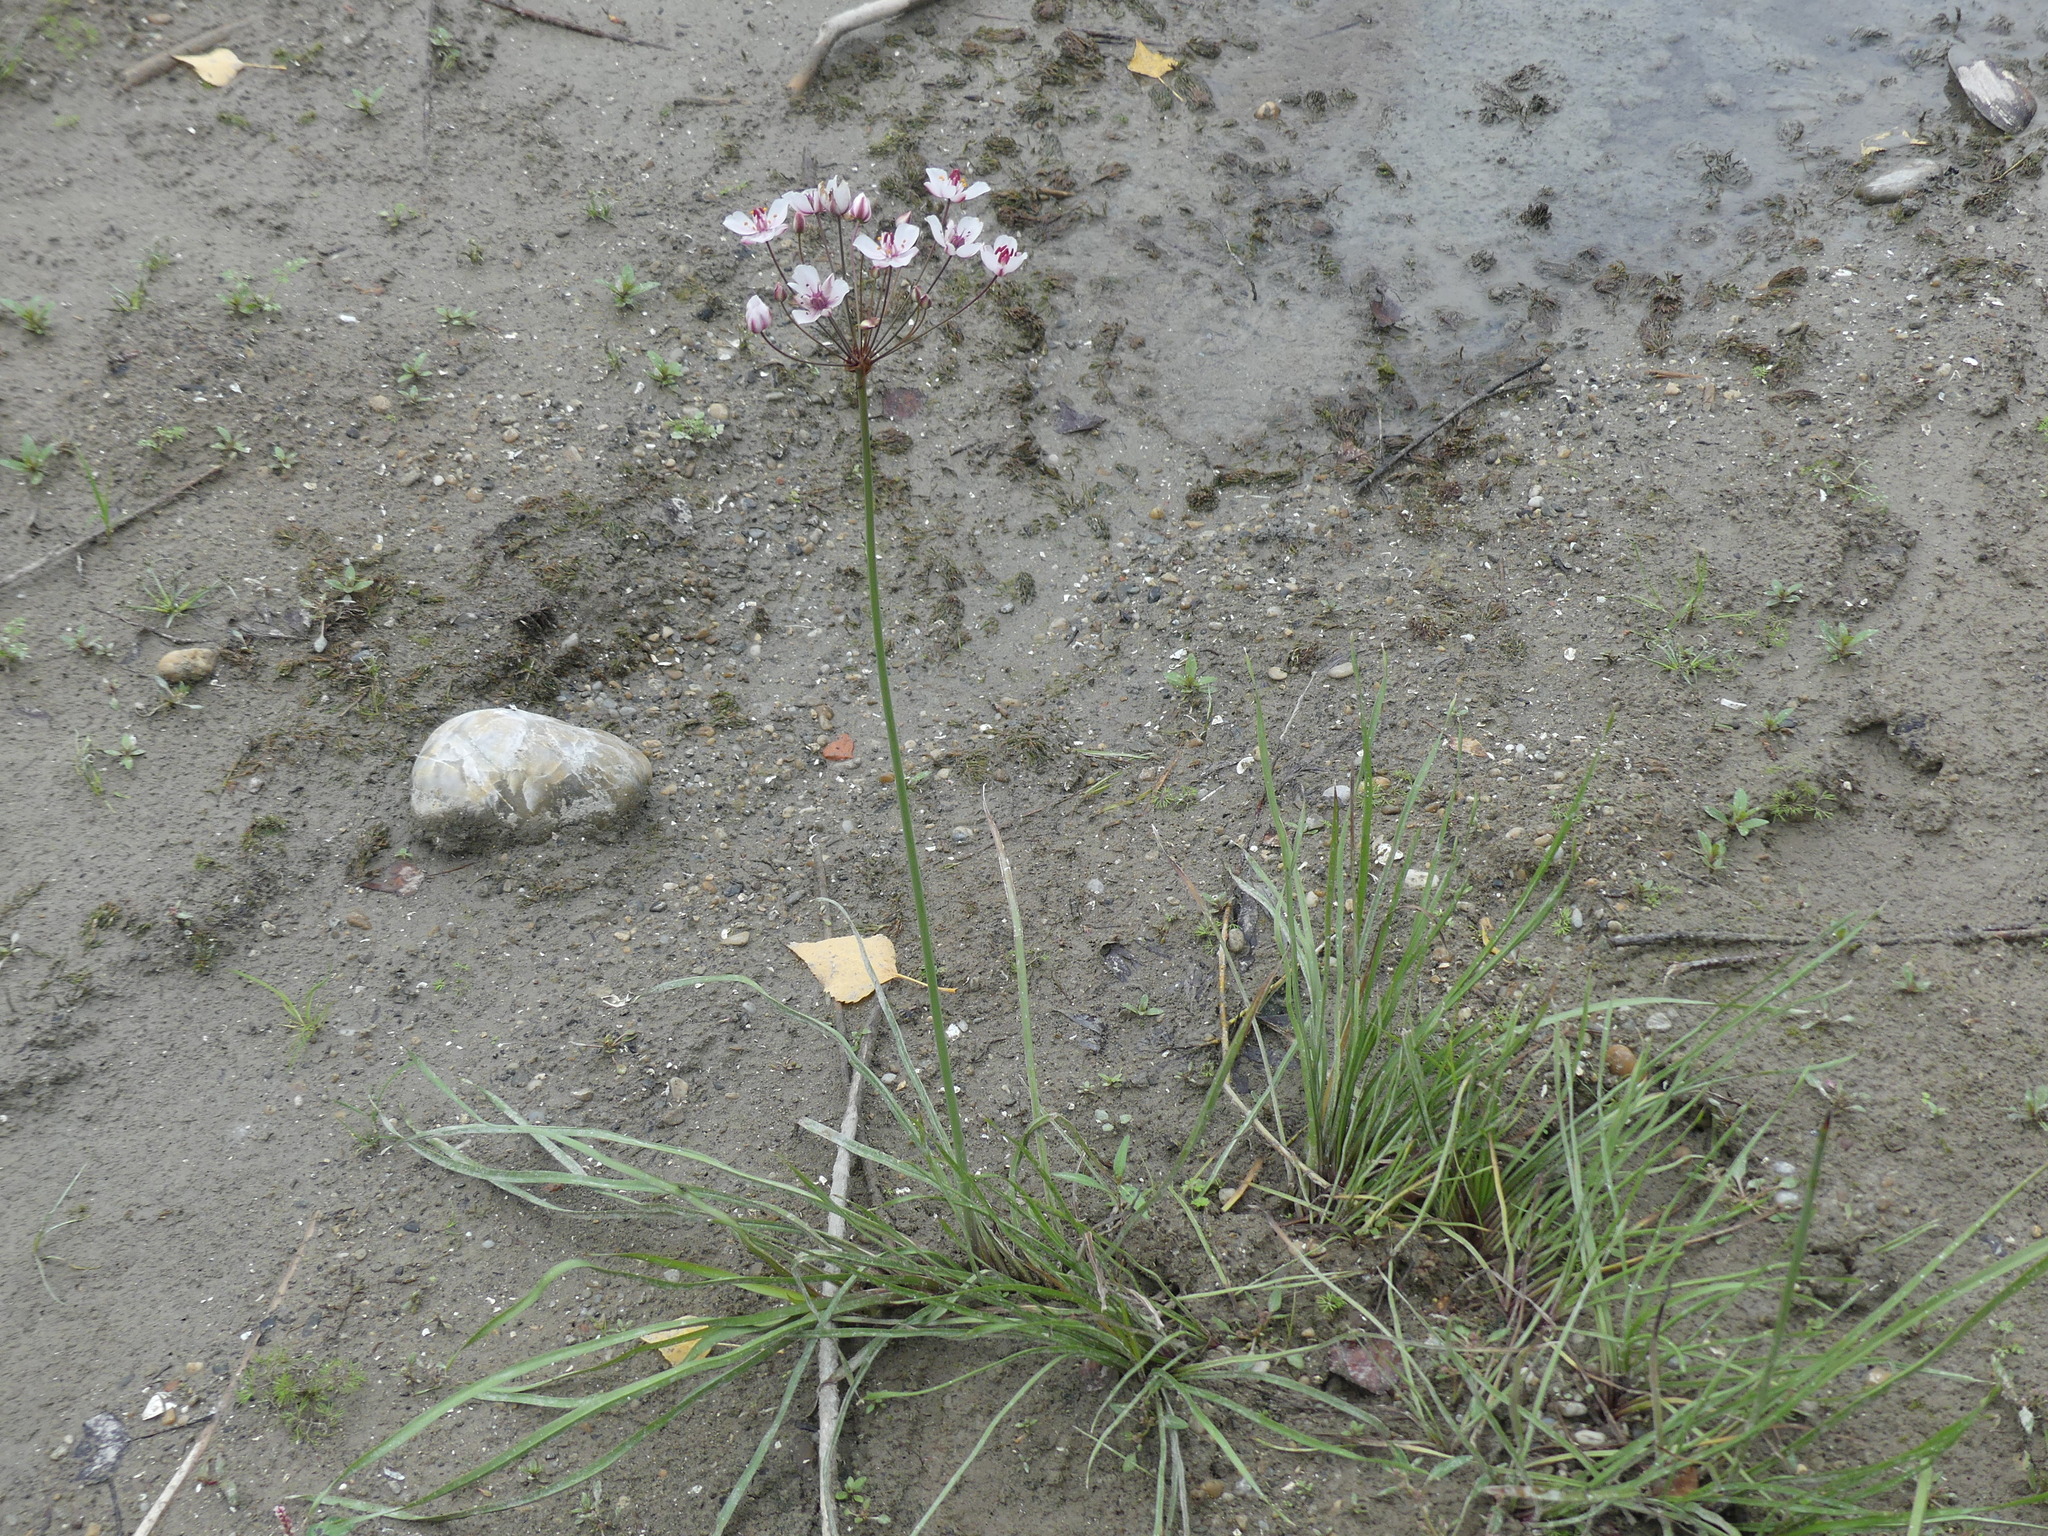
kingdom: Plantae
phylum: Tracheophyta
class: Liliopsida
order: Alismatales
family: Butomaceae
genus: Butomus
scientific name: Butomus umbellatus
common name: Flowering-rush
